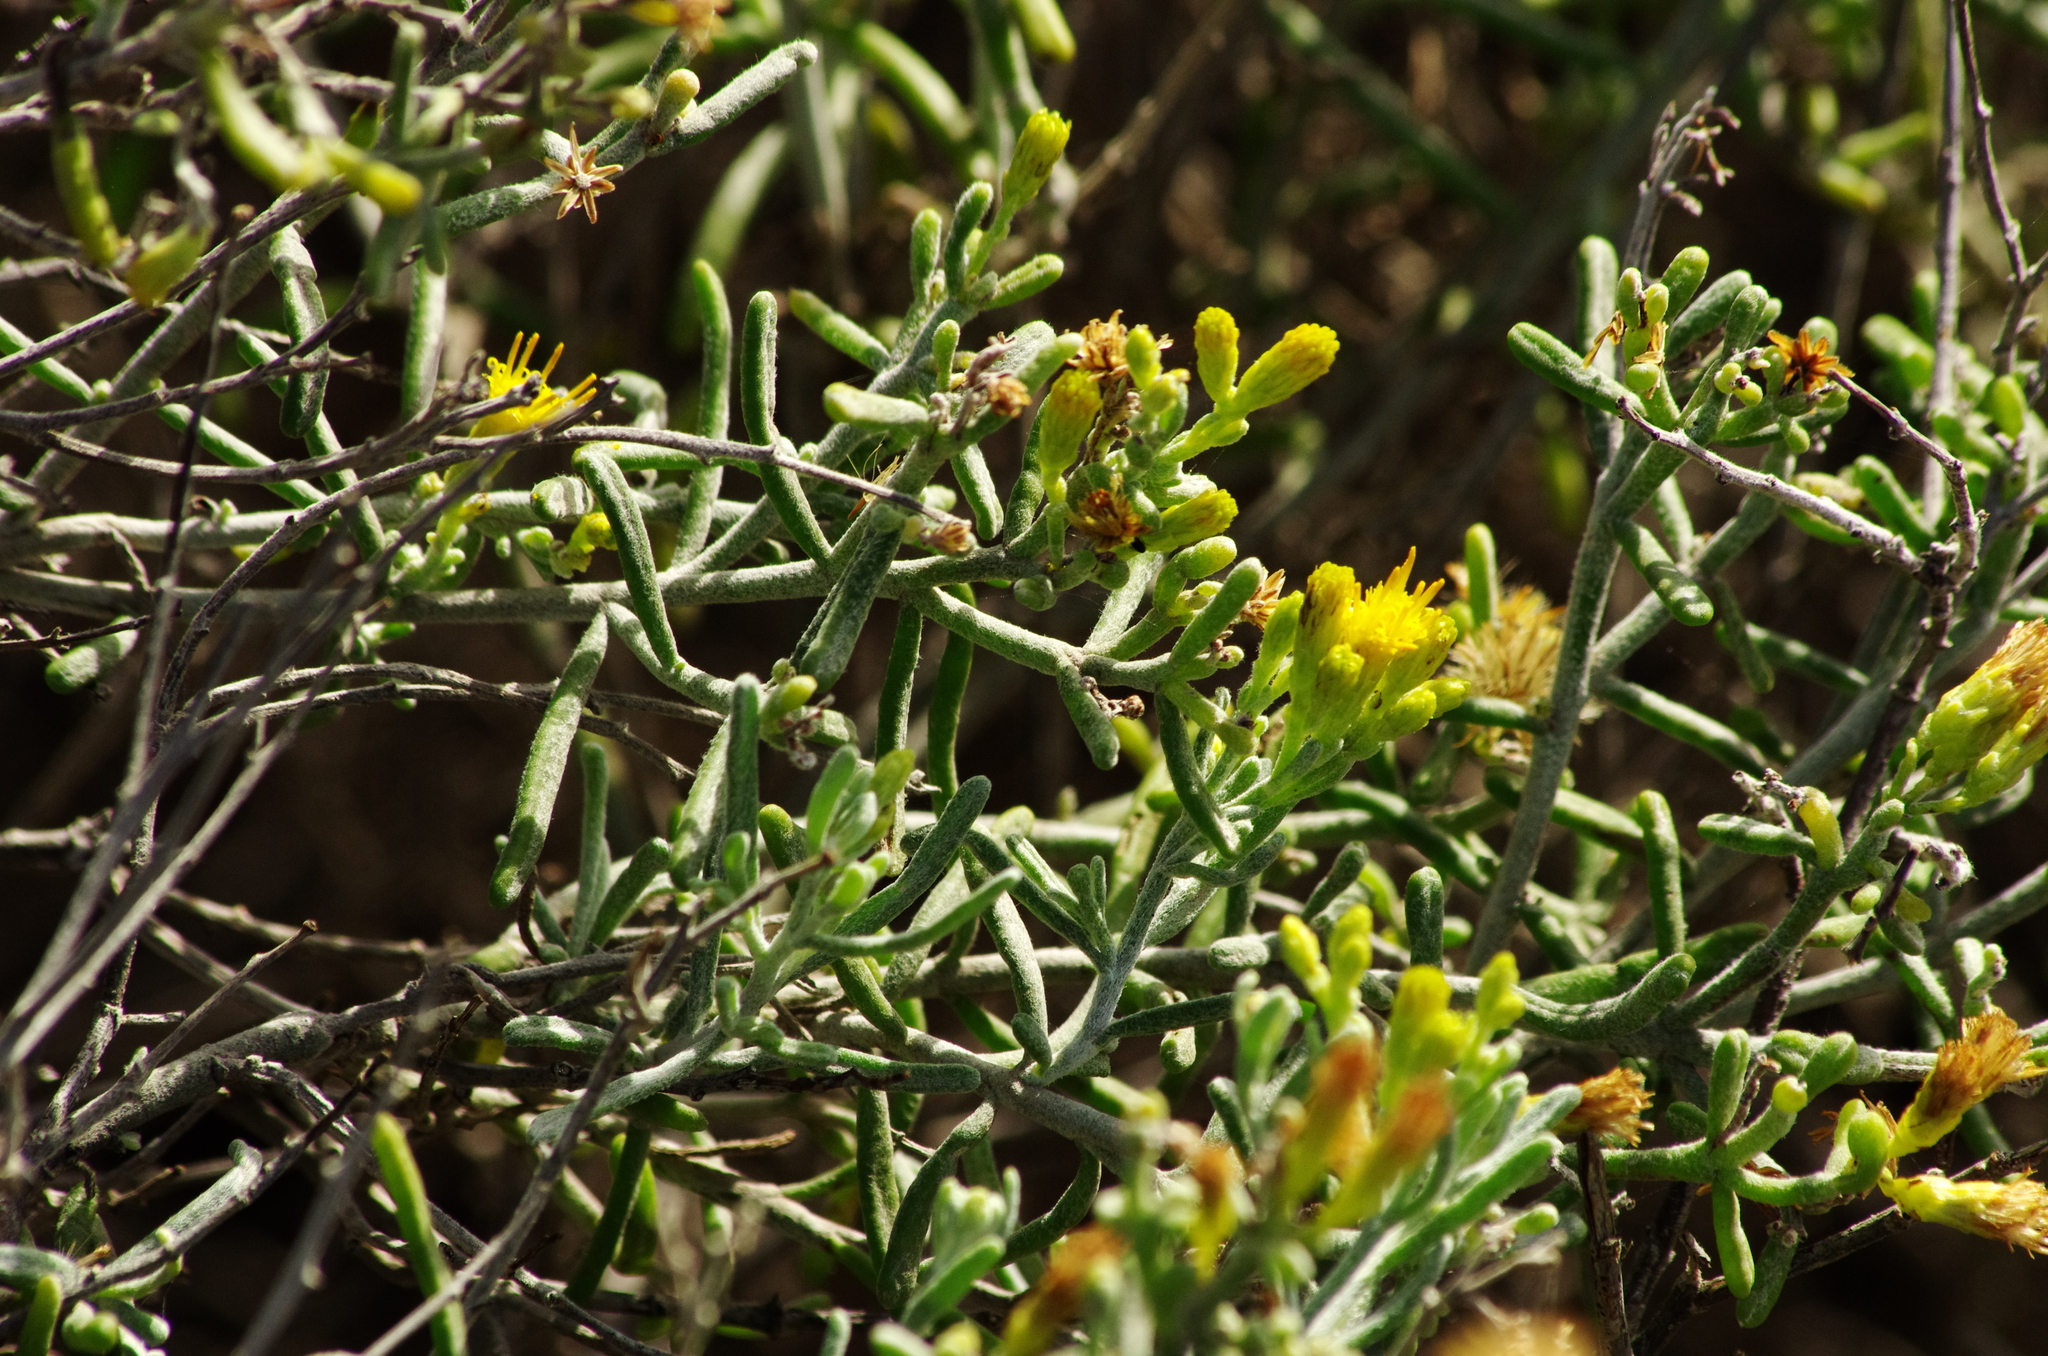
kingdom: Plantae
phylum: Tracheophyta
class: Magnoliopsida
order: Asterales
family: Asteraceae
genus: Schizogyne
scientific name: Schizogyne sericea
